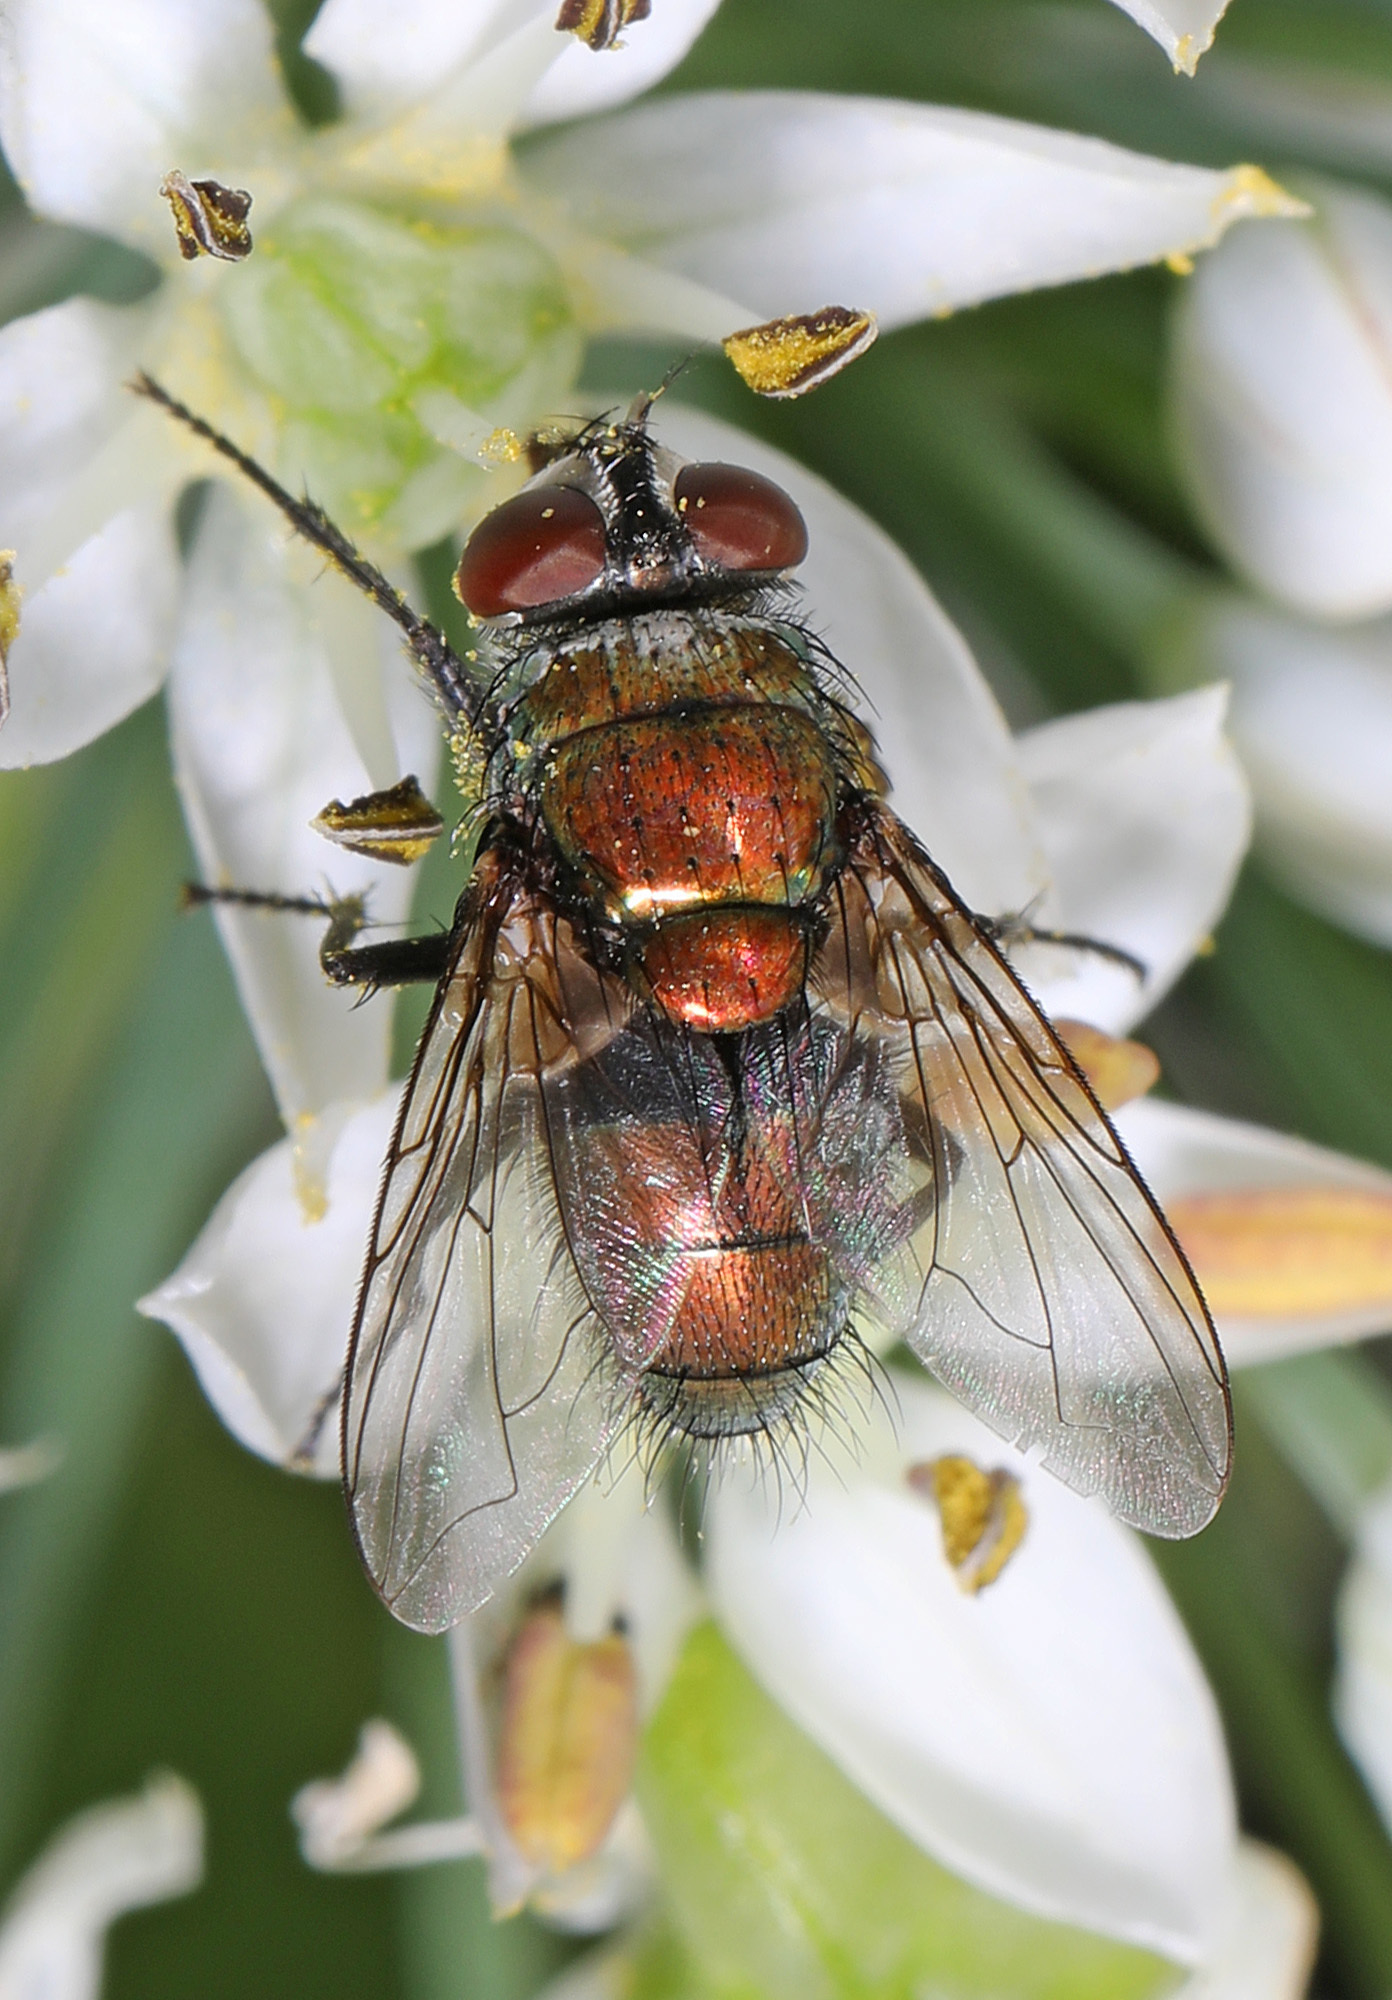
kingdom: Animalia
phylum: Arthropoda
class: Insecta
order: Diptera
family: Calliphoridae
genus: Lucilia
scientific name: Lucilia cuprina
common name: Sheep blow fly
